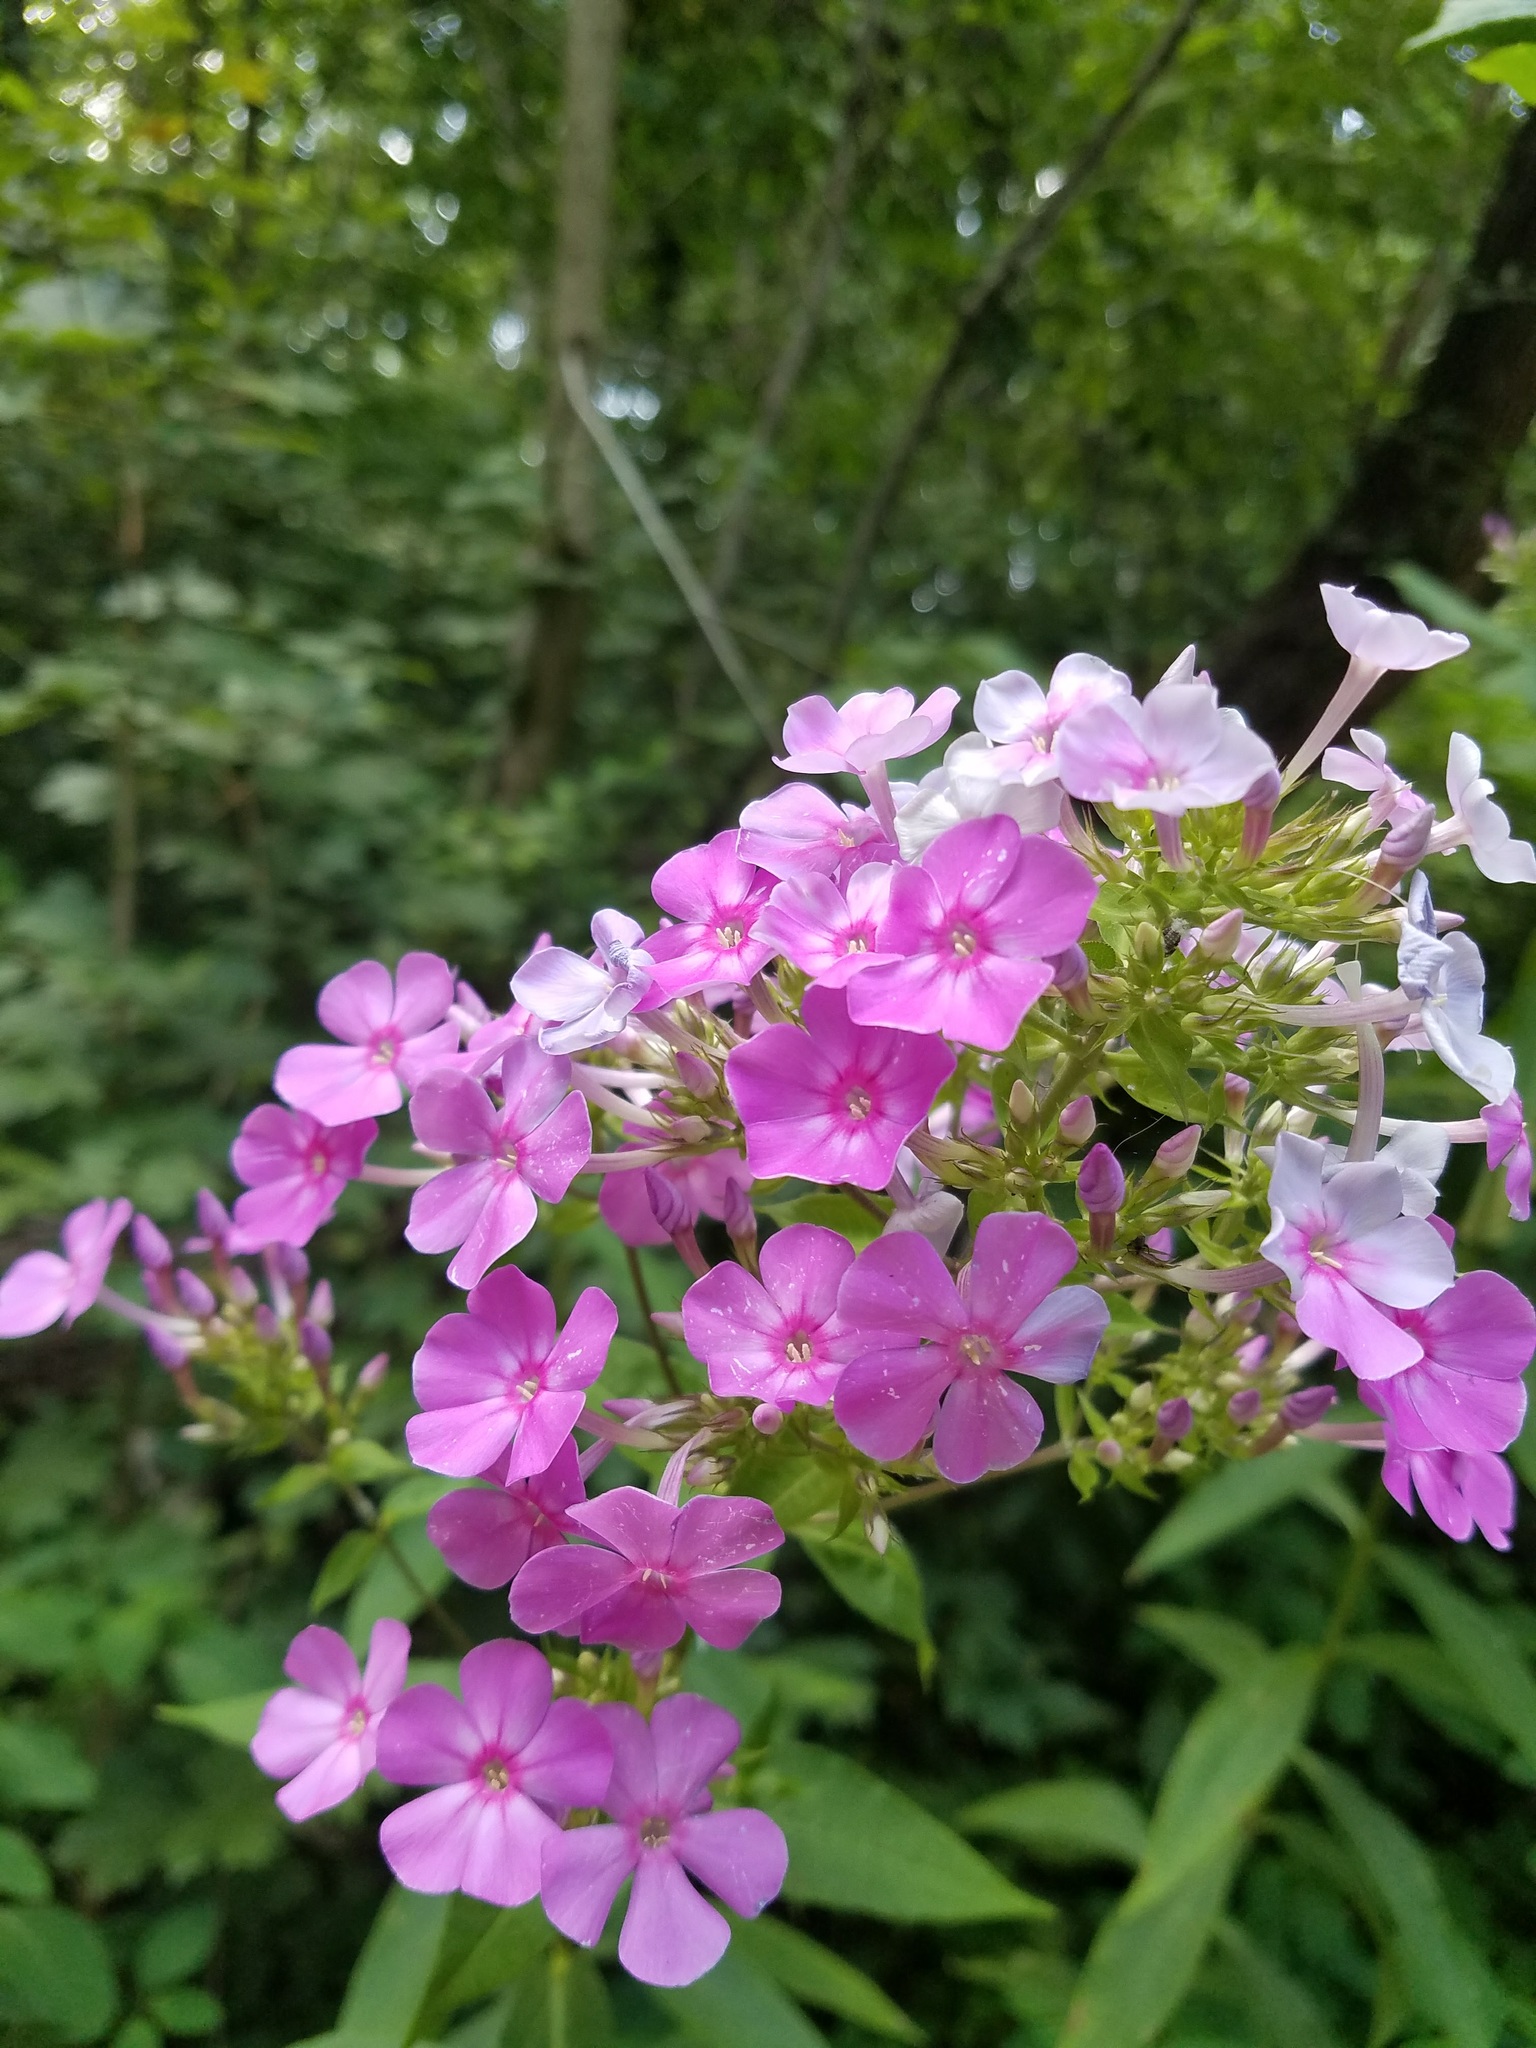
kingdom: Plantae
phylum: Tracheophyta
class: Magnoliopsida
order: Ericales
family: Polemoniaceae
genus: Phlox
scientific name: Phlox paniculata
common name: Fall phlox
